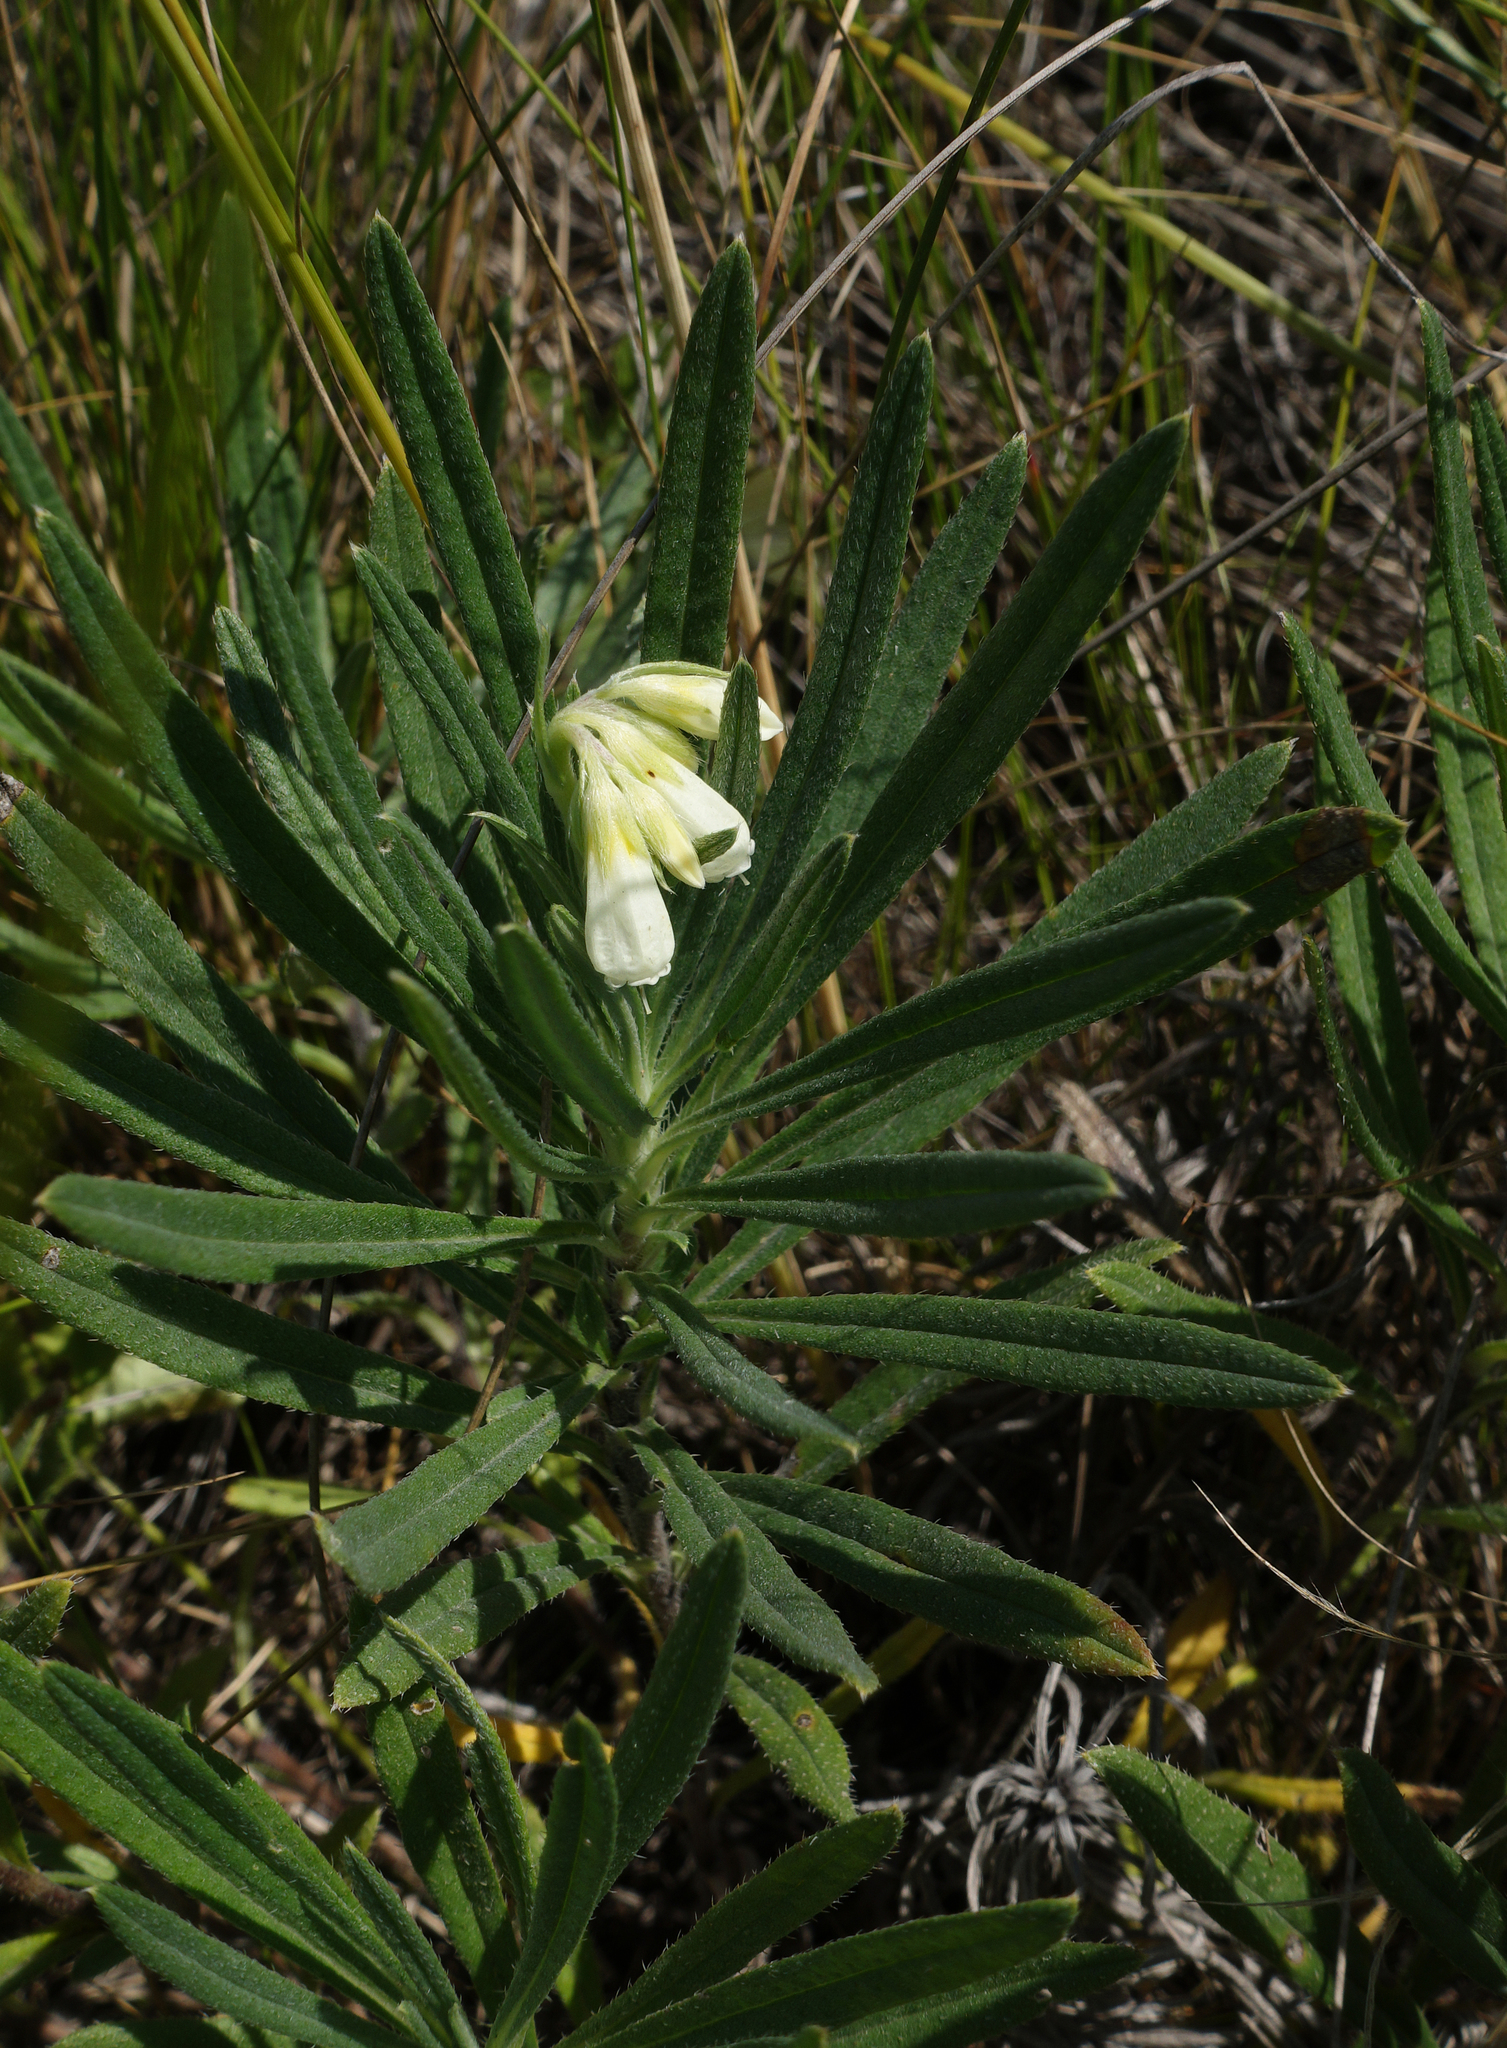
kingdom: Plantae
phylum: Tracheophyta
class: Magnoliopsida
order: Boraginales
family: Boraginaceae
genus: Onosma
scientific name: Onosma simplicissima
